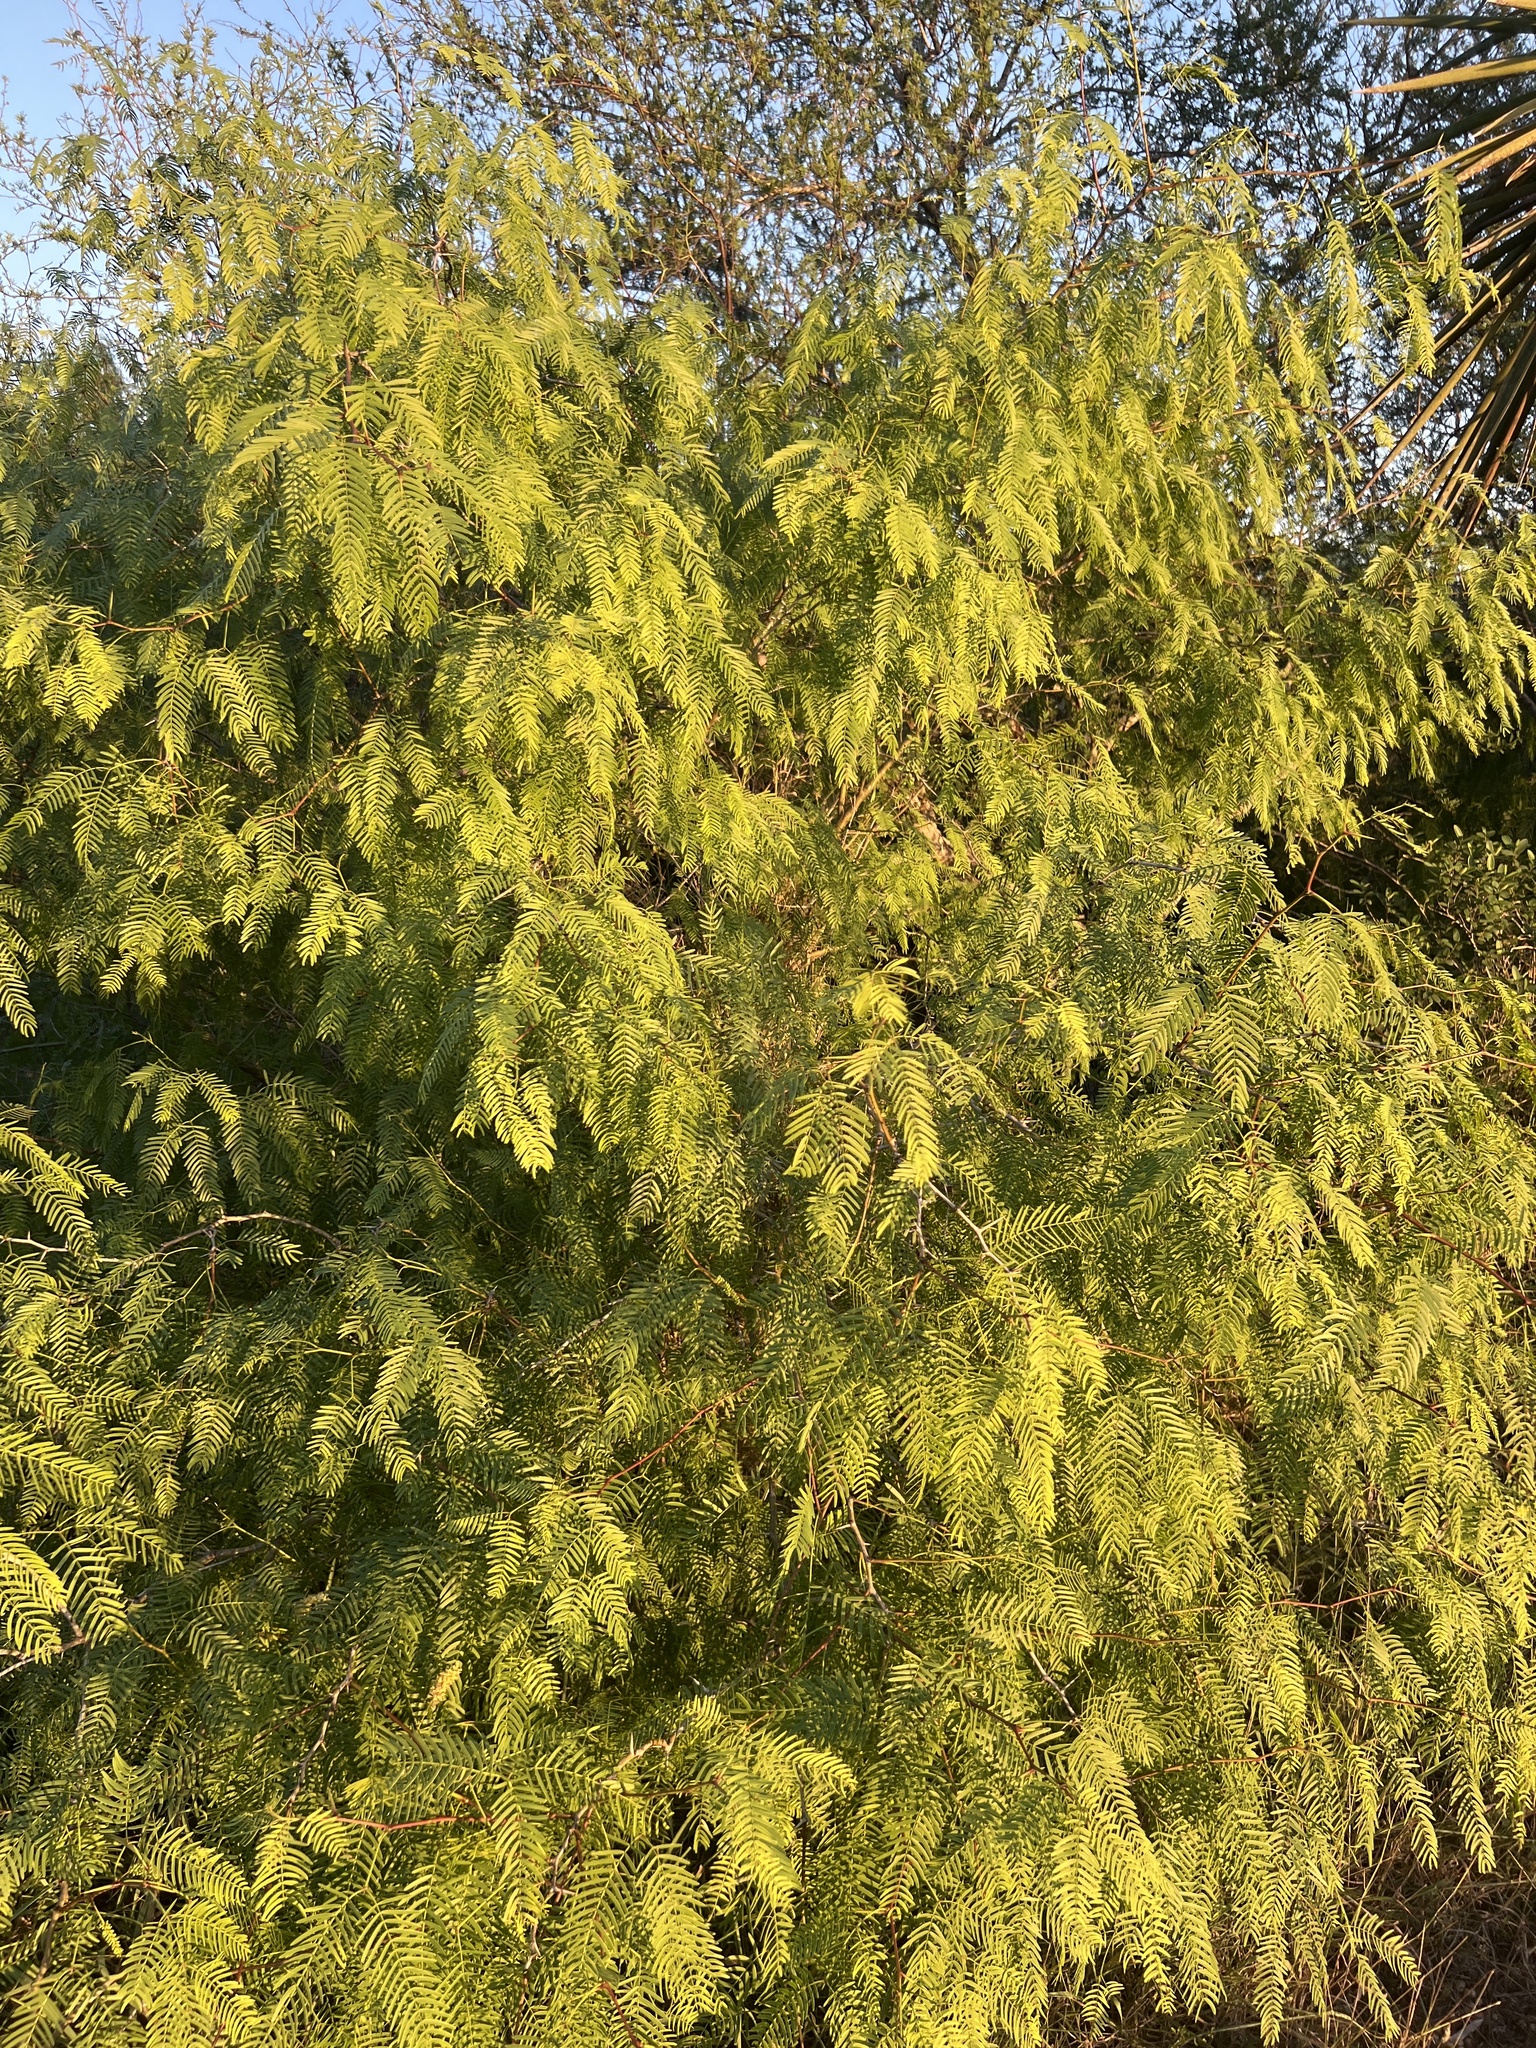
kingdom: Plantae
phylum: Tracheophyta
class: Magnoliopsida
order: Fabales
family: Fabaceae
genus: Prosopis
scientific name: Prosopis glandulosa
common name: Honey mesquite
